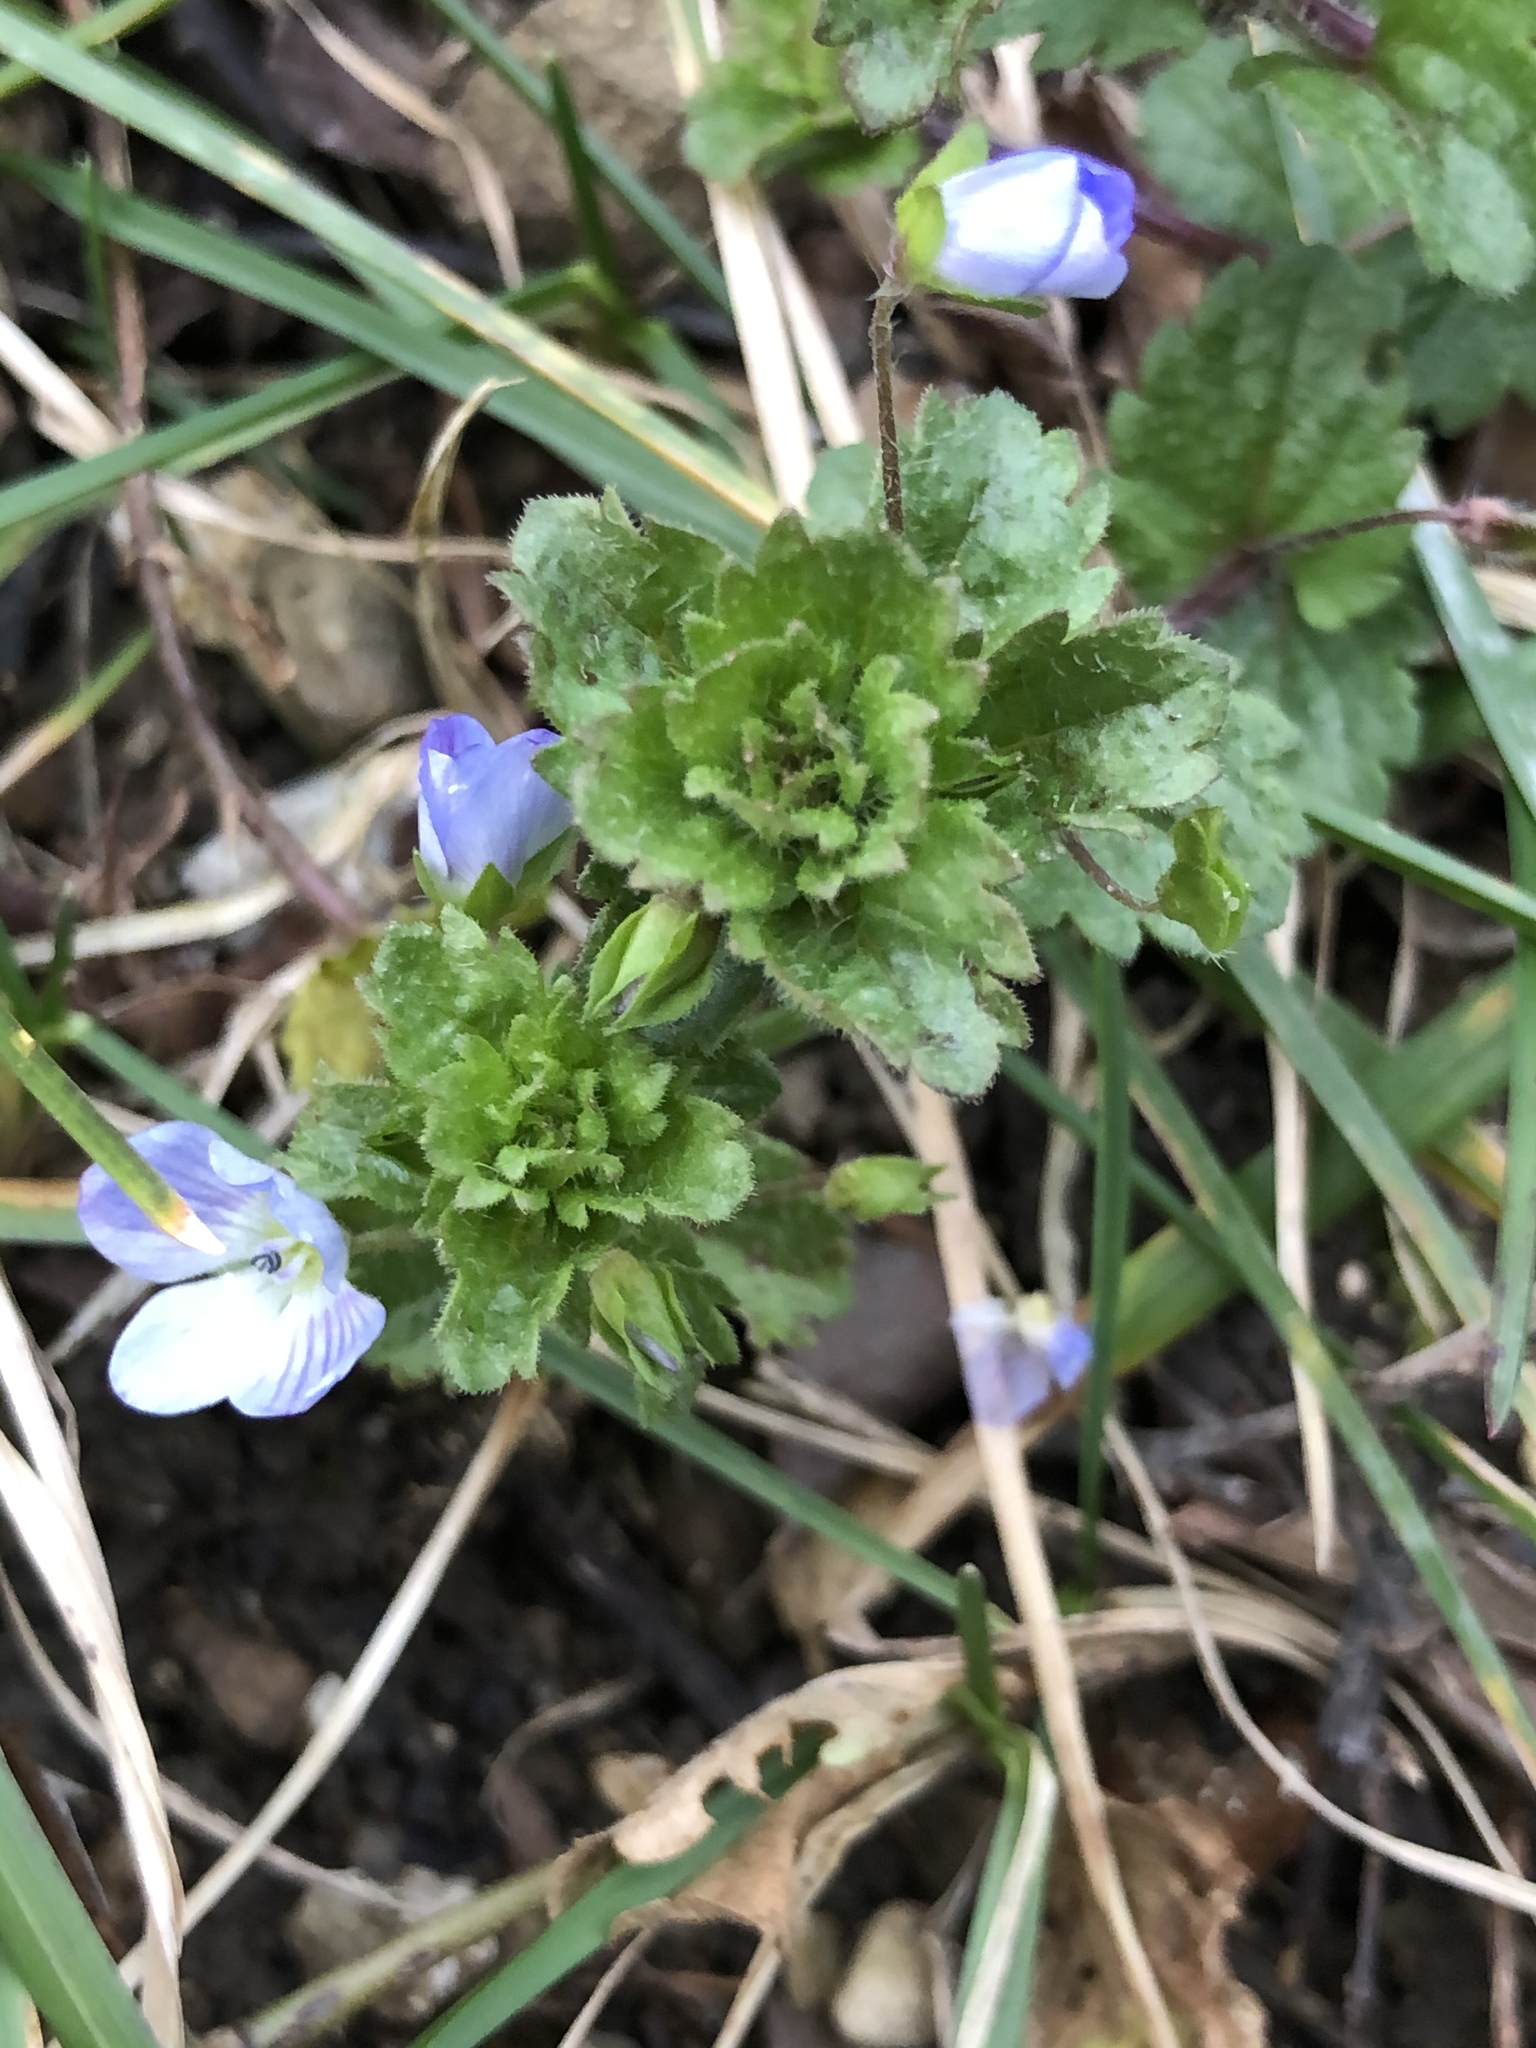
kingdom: Plantae
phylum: Tracheophyta
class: Magnoliopsida
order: Lamiales
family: Plantaginaceae
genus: Veronica
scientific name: Veronica persica
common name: Common field-speedwell
